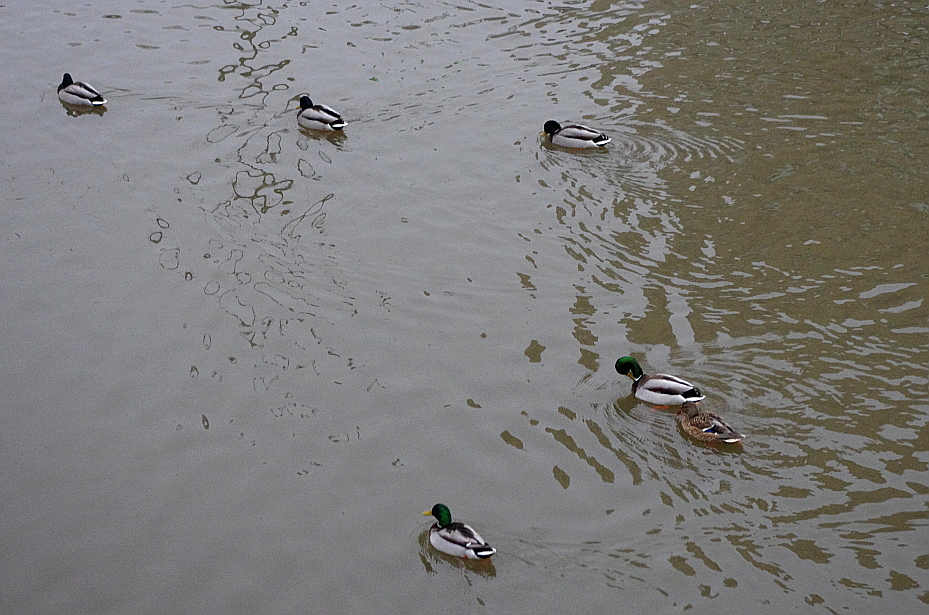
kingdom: Animalia
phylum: Chordata
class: Aves
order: Anseriformes
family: Anatidae
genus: Anas
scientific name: Anas platyrhynchos
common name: Mallard
